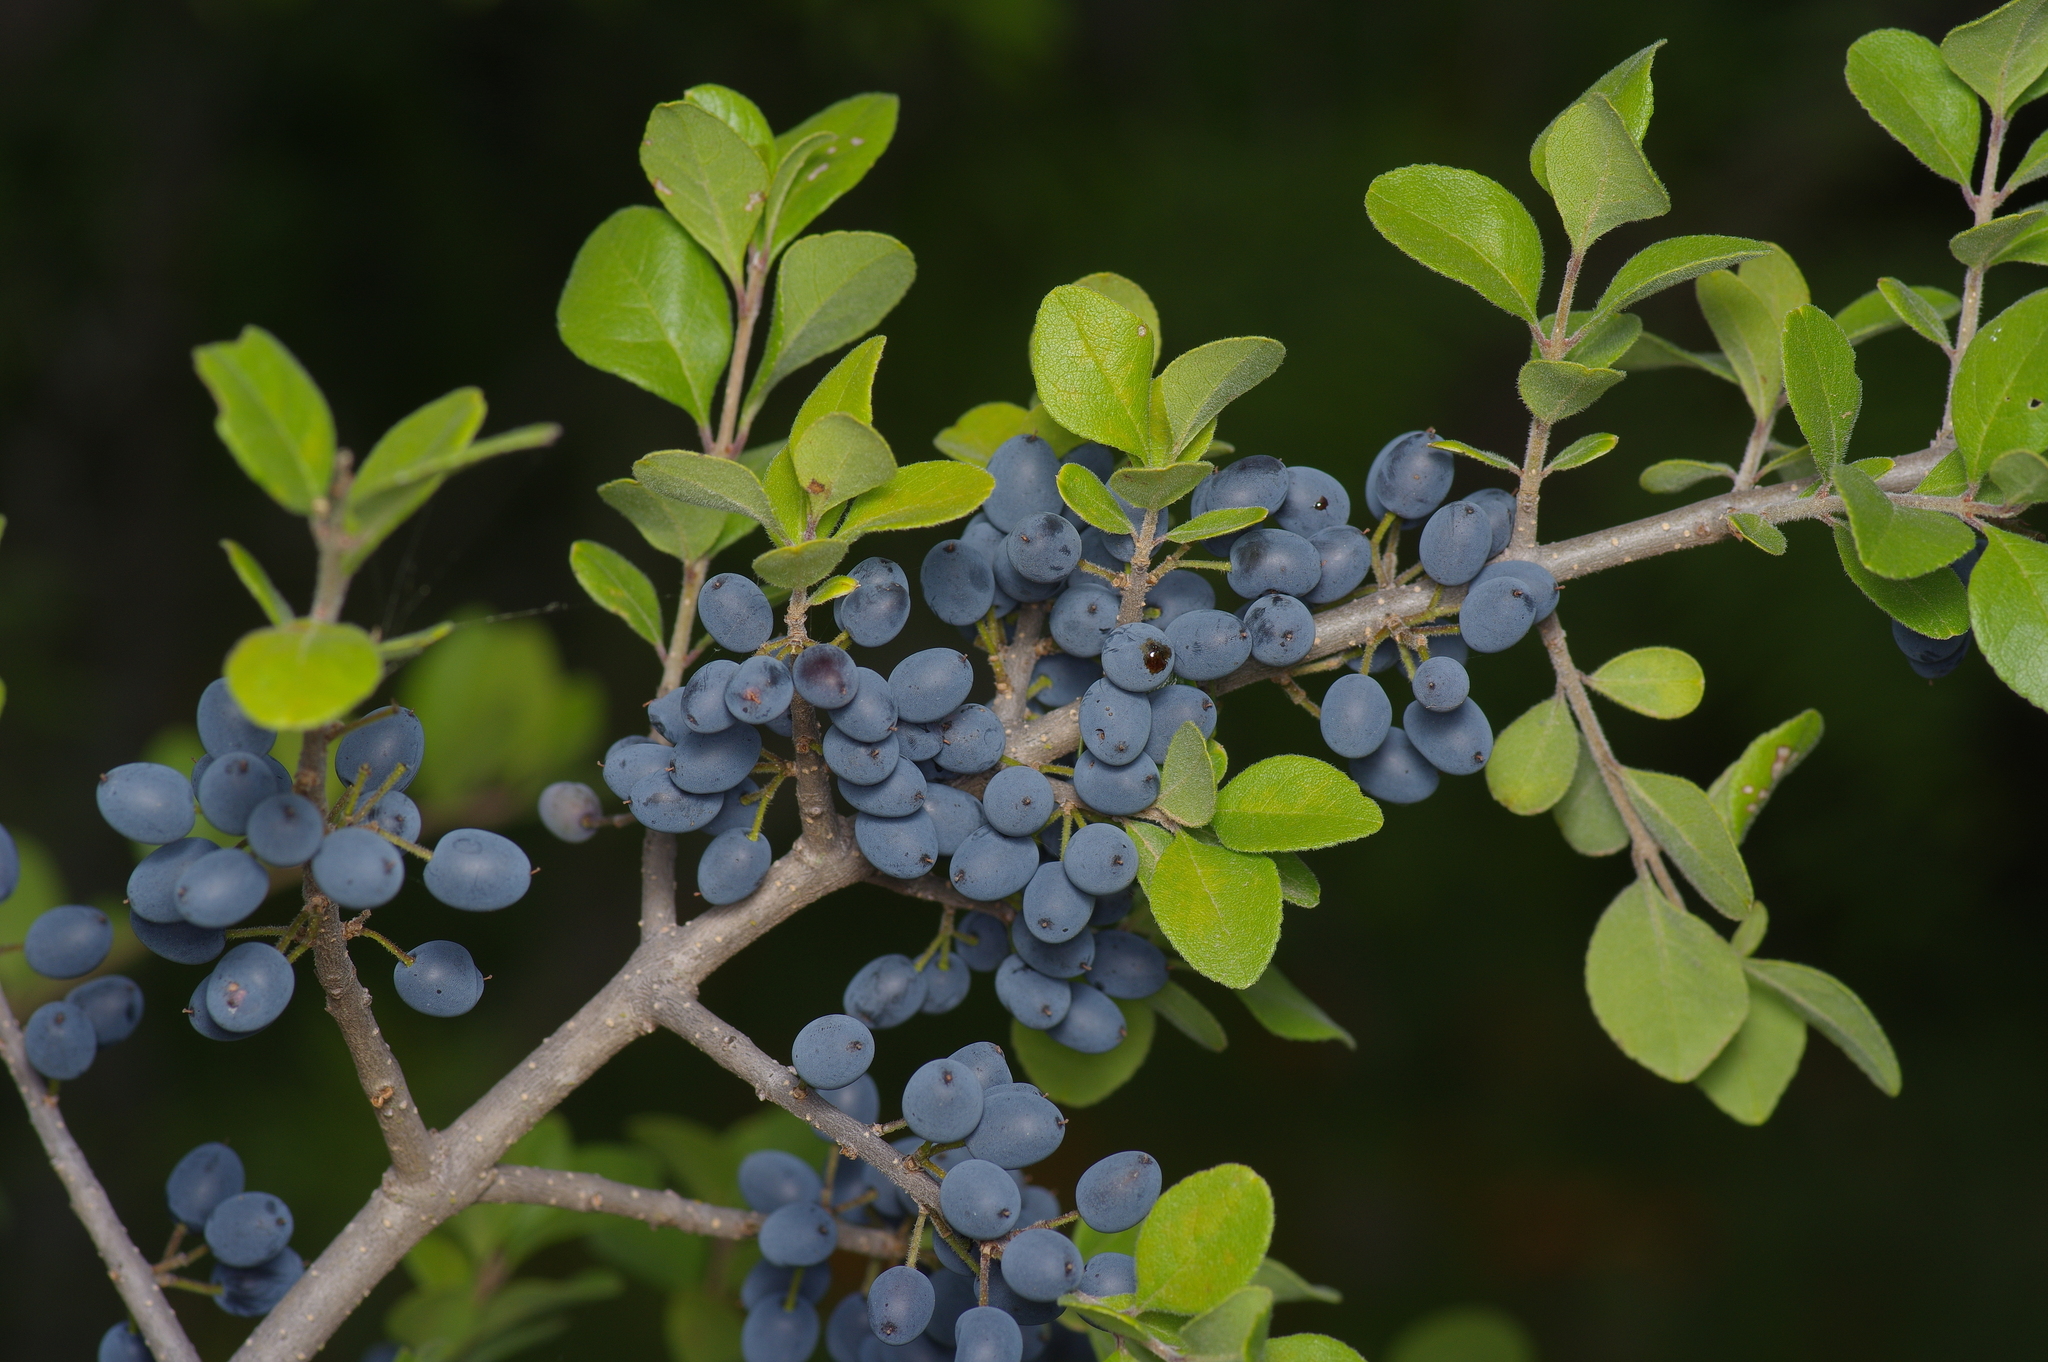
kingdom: Plantae
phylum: Tracheophyta
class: Magnoliopsida
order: Lamiales
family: Oleaceae
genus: Forestiera
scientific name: Forestiera pubescens
